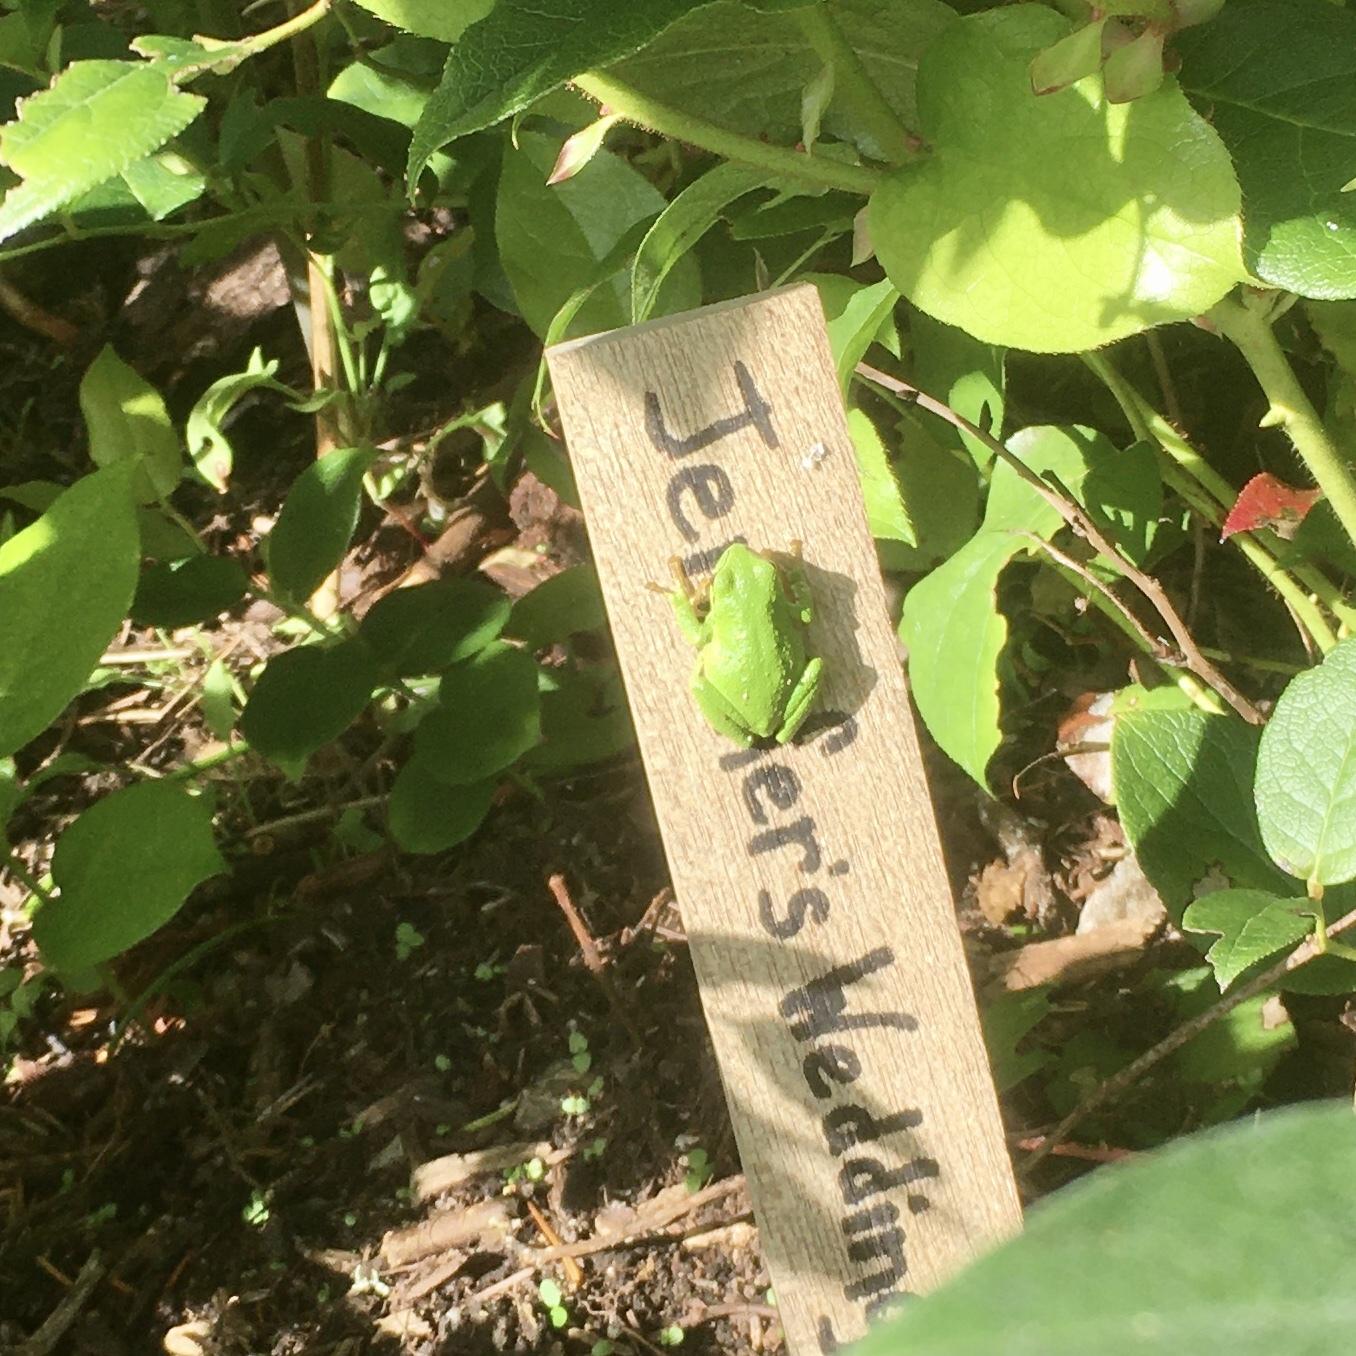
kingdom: Animalia
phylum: Chordata
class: Amphibia
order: Anura
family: Hylidae
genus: Pseudacris
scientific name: Pseudacris regilla
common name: Pacific chorus frog
